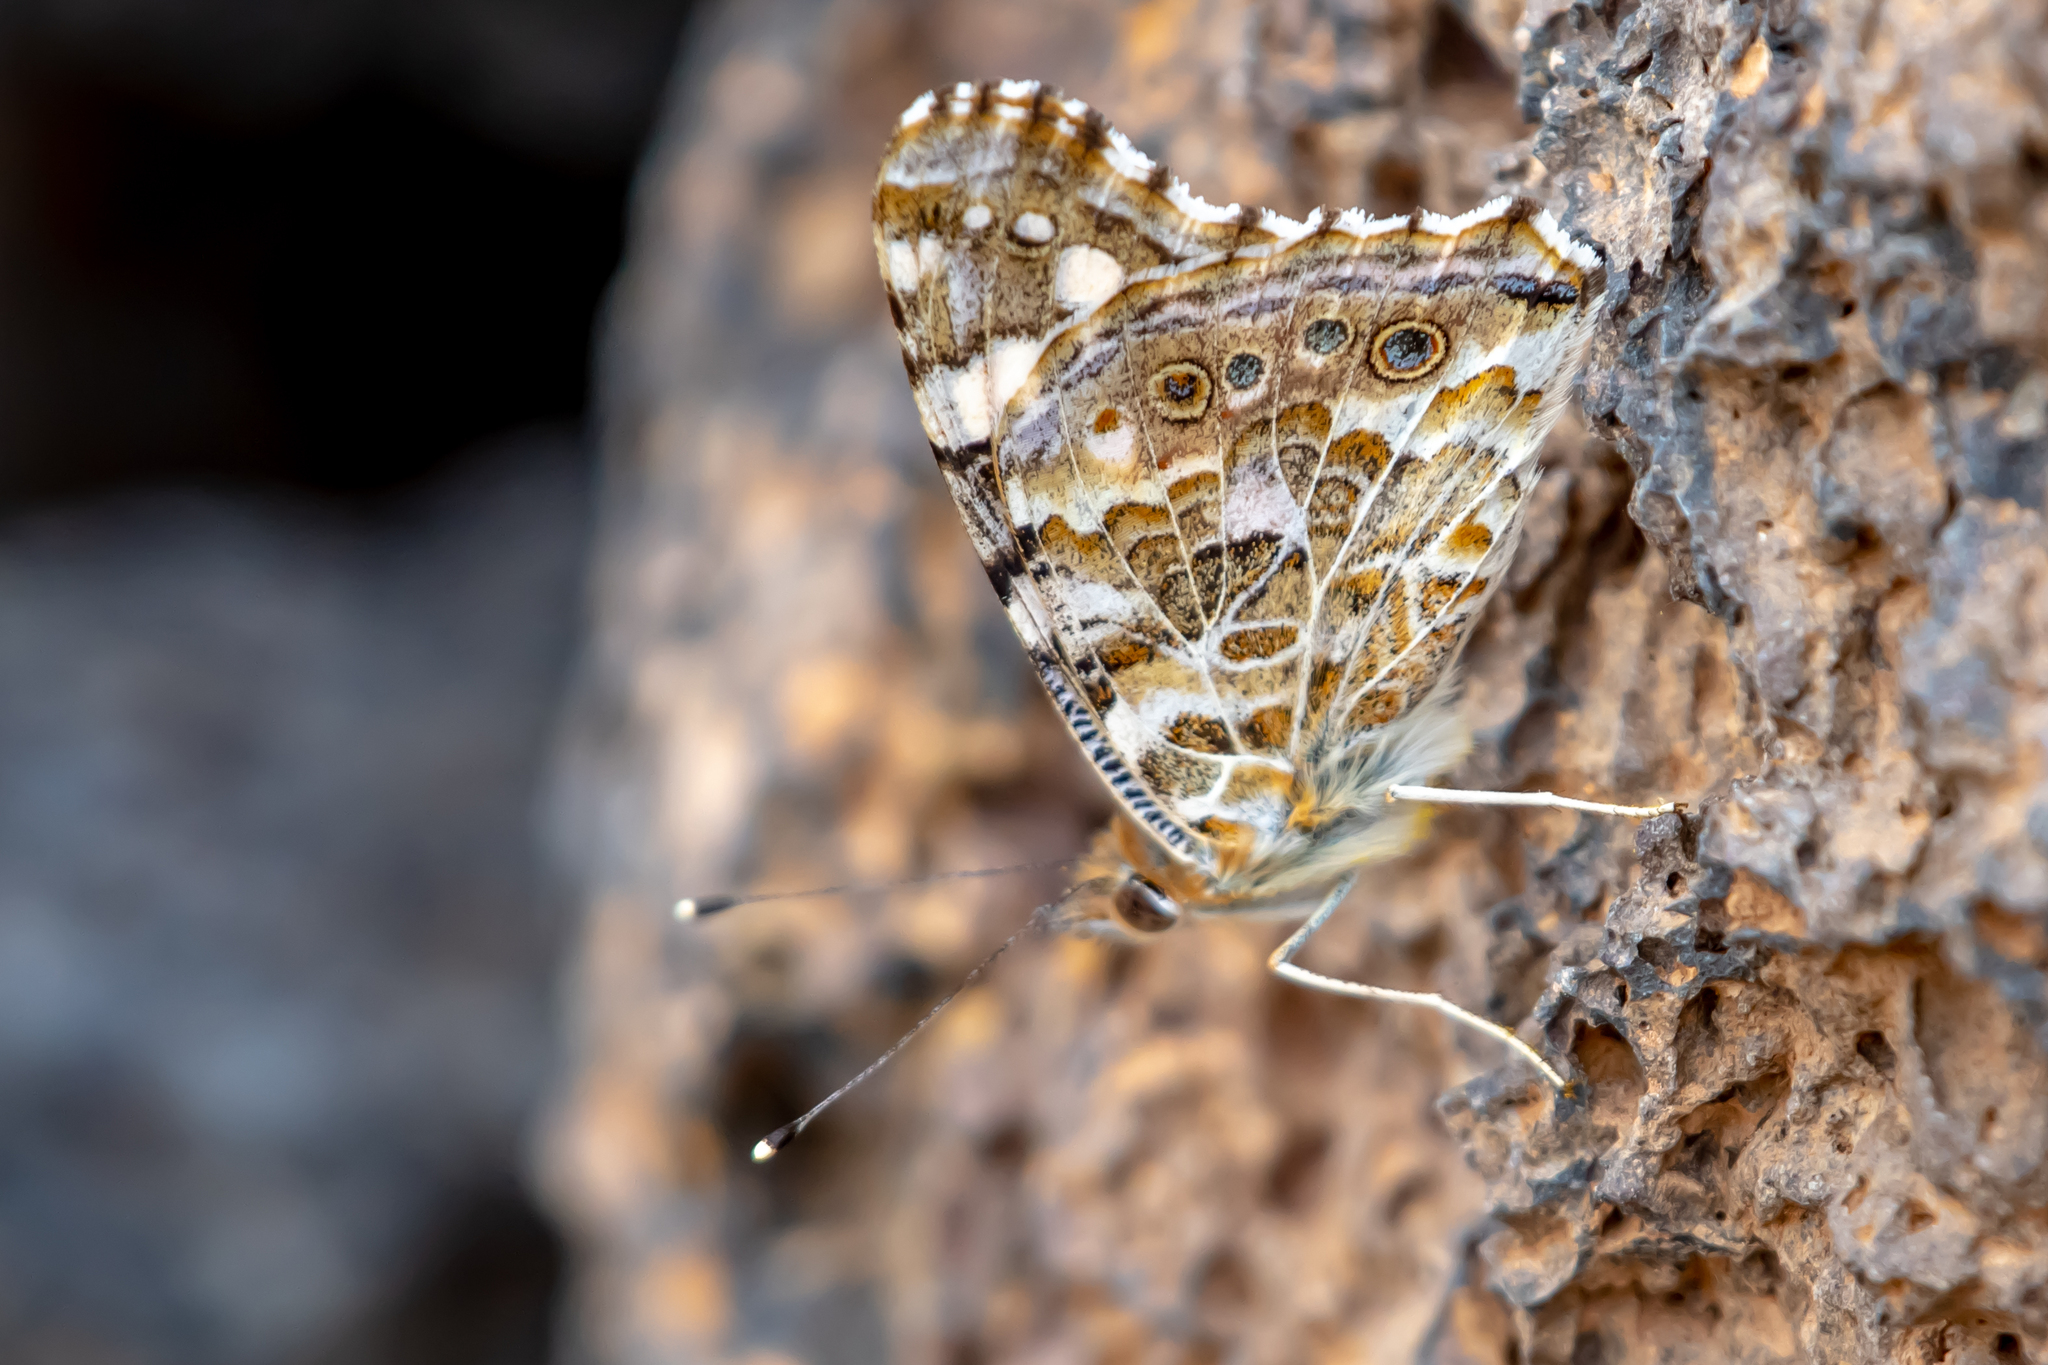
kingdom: Animalia
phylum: Arthropoda
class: Insecta
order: Lepidoptera
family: Nymphalidae
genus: Vanessa
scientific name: Vanessa cardui
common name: Painted lady
